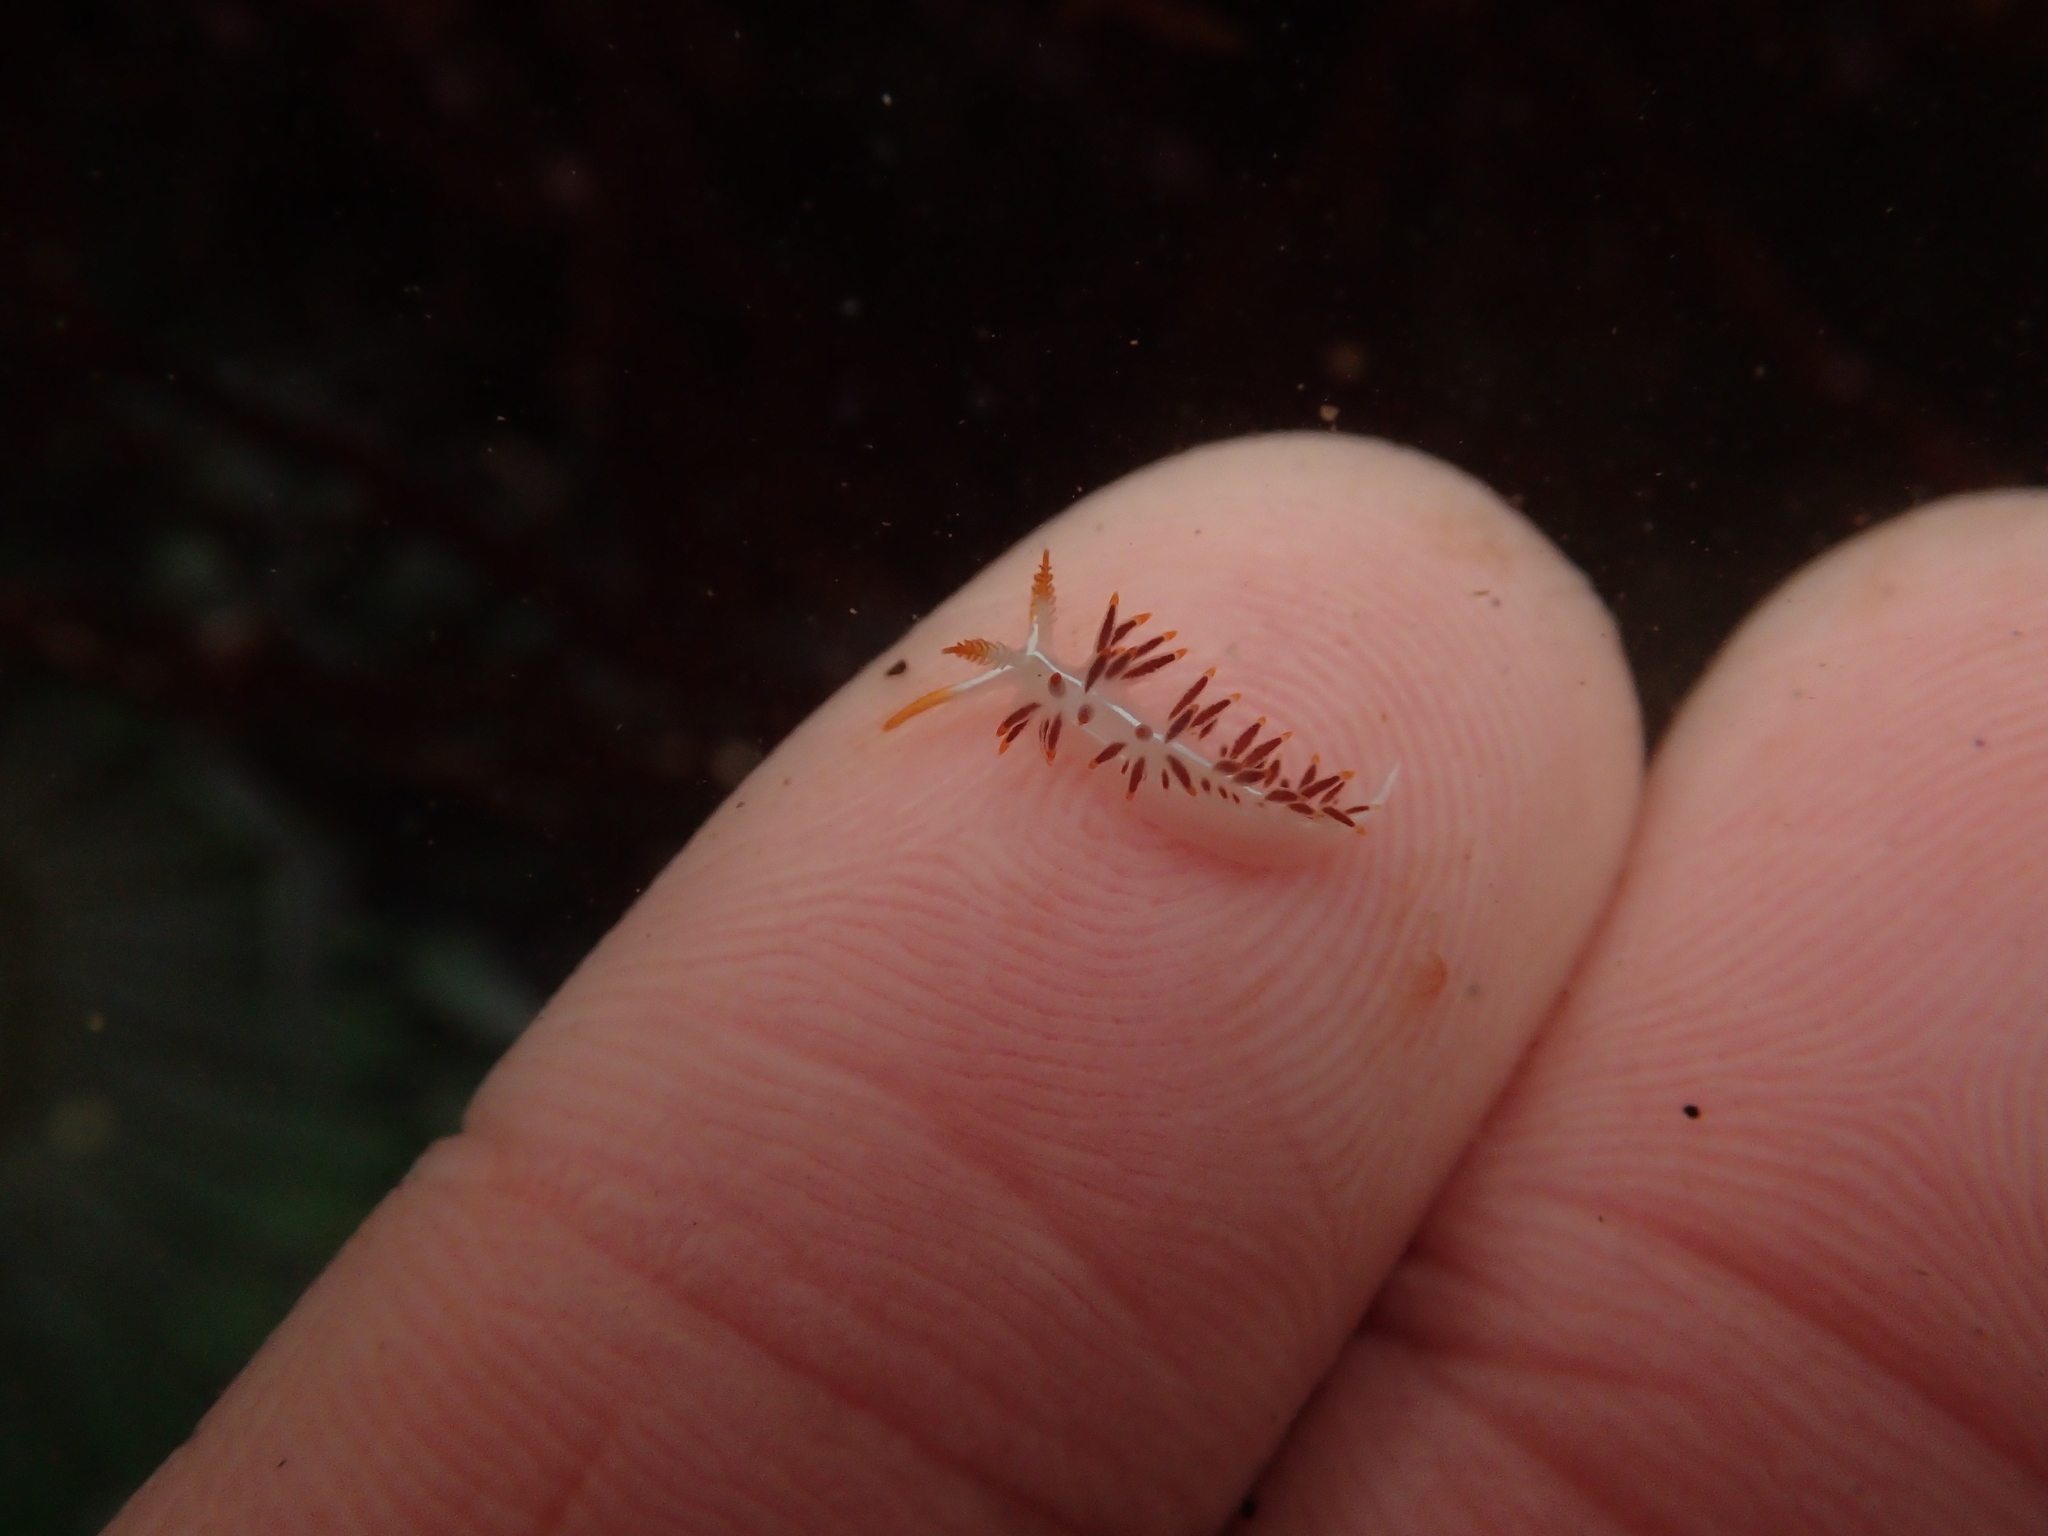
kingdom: Animalia
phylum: Mollusca
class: Gastropoda
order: Nudibranchia
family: Coryphellidae
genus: Coryphella
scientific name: Coryphella trilineata
